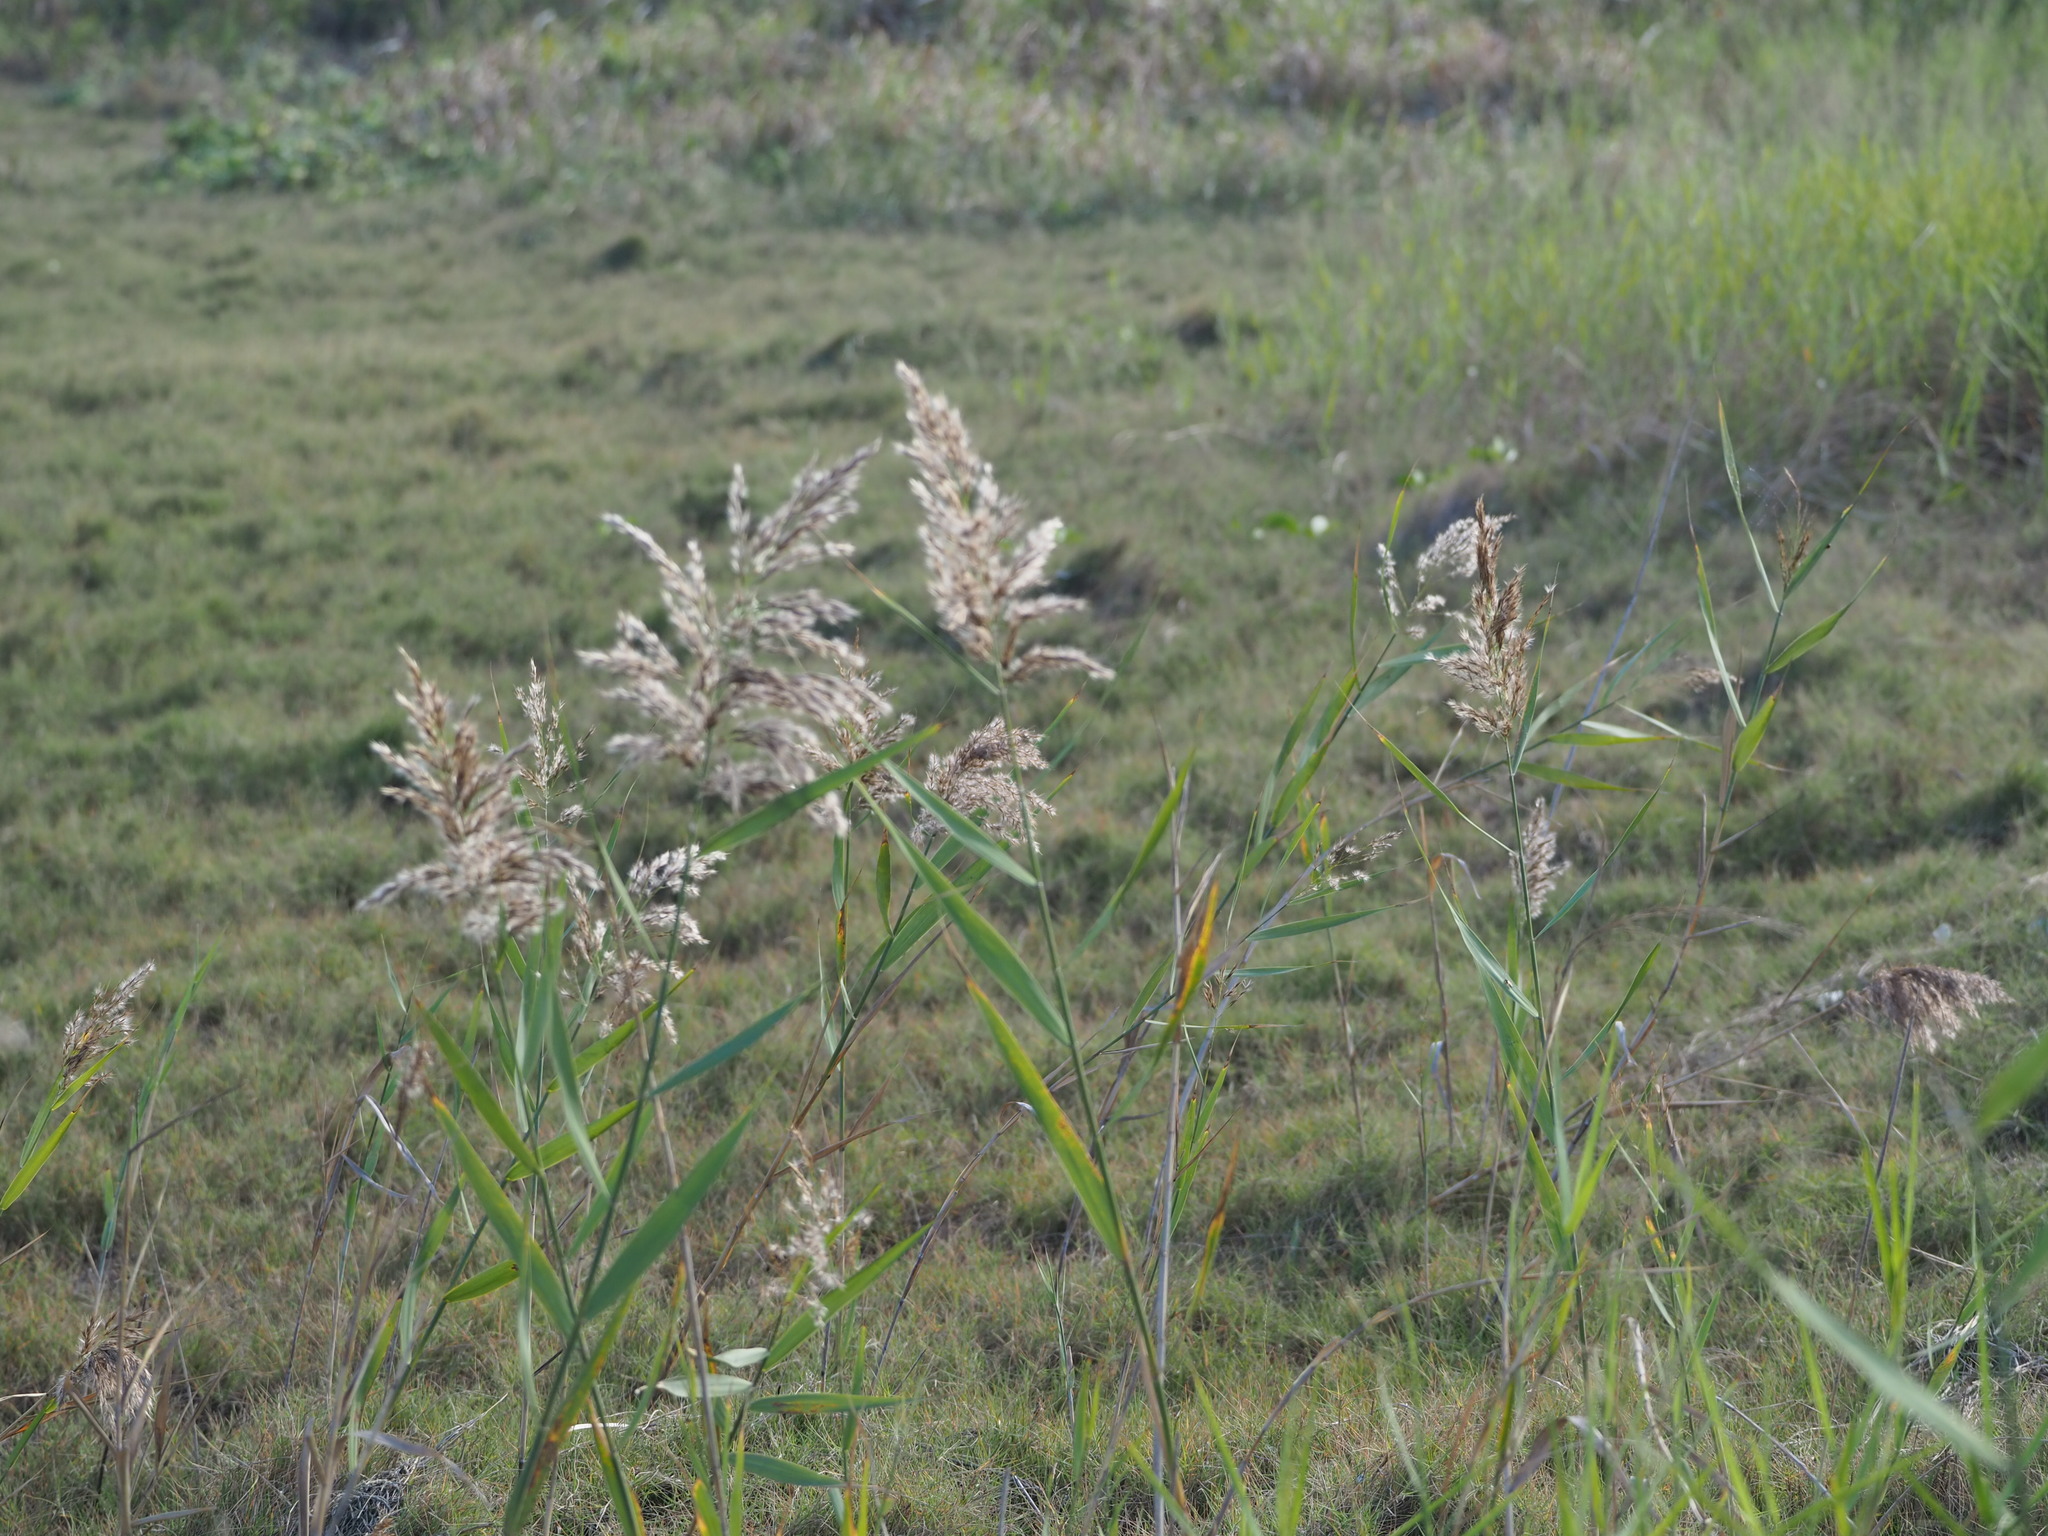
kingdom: Plantae
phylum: Tracheophyta
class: Liliopsida
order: Poales
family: Poaceae
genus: Phragmites
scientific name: Phragmites australis
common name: Common reed
